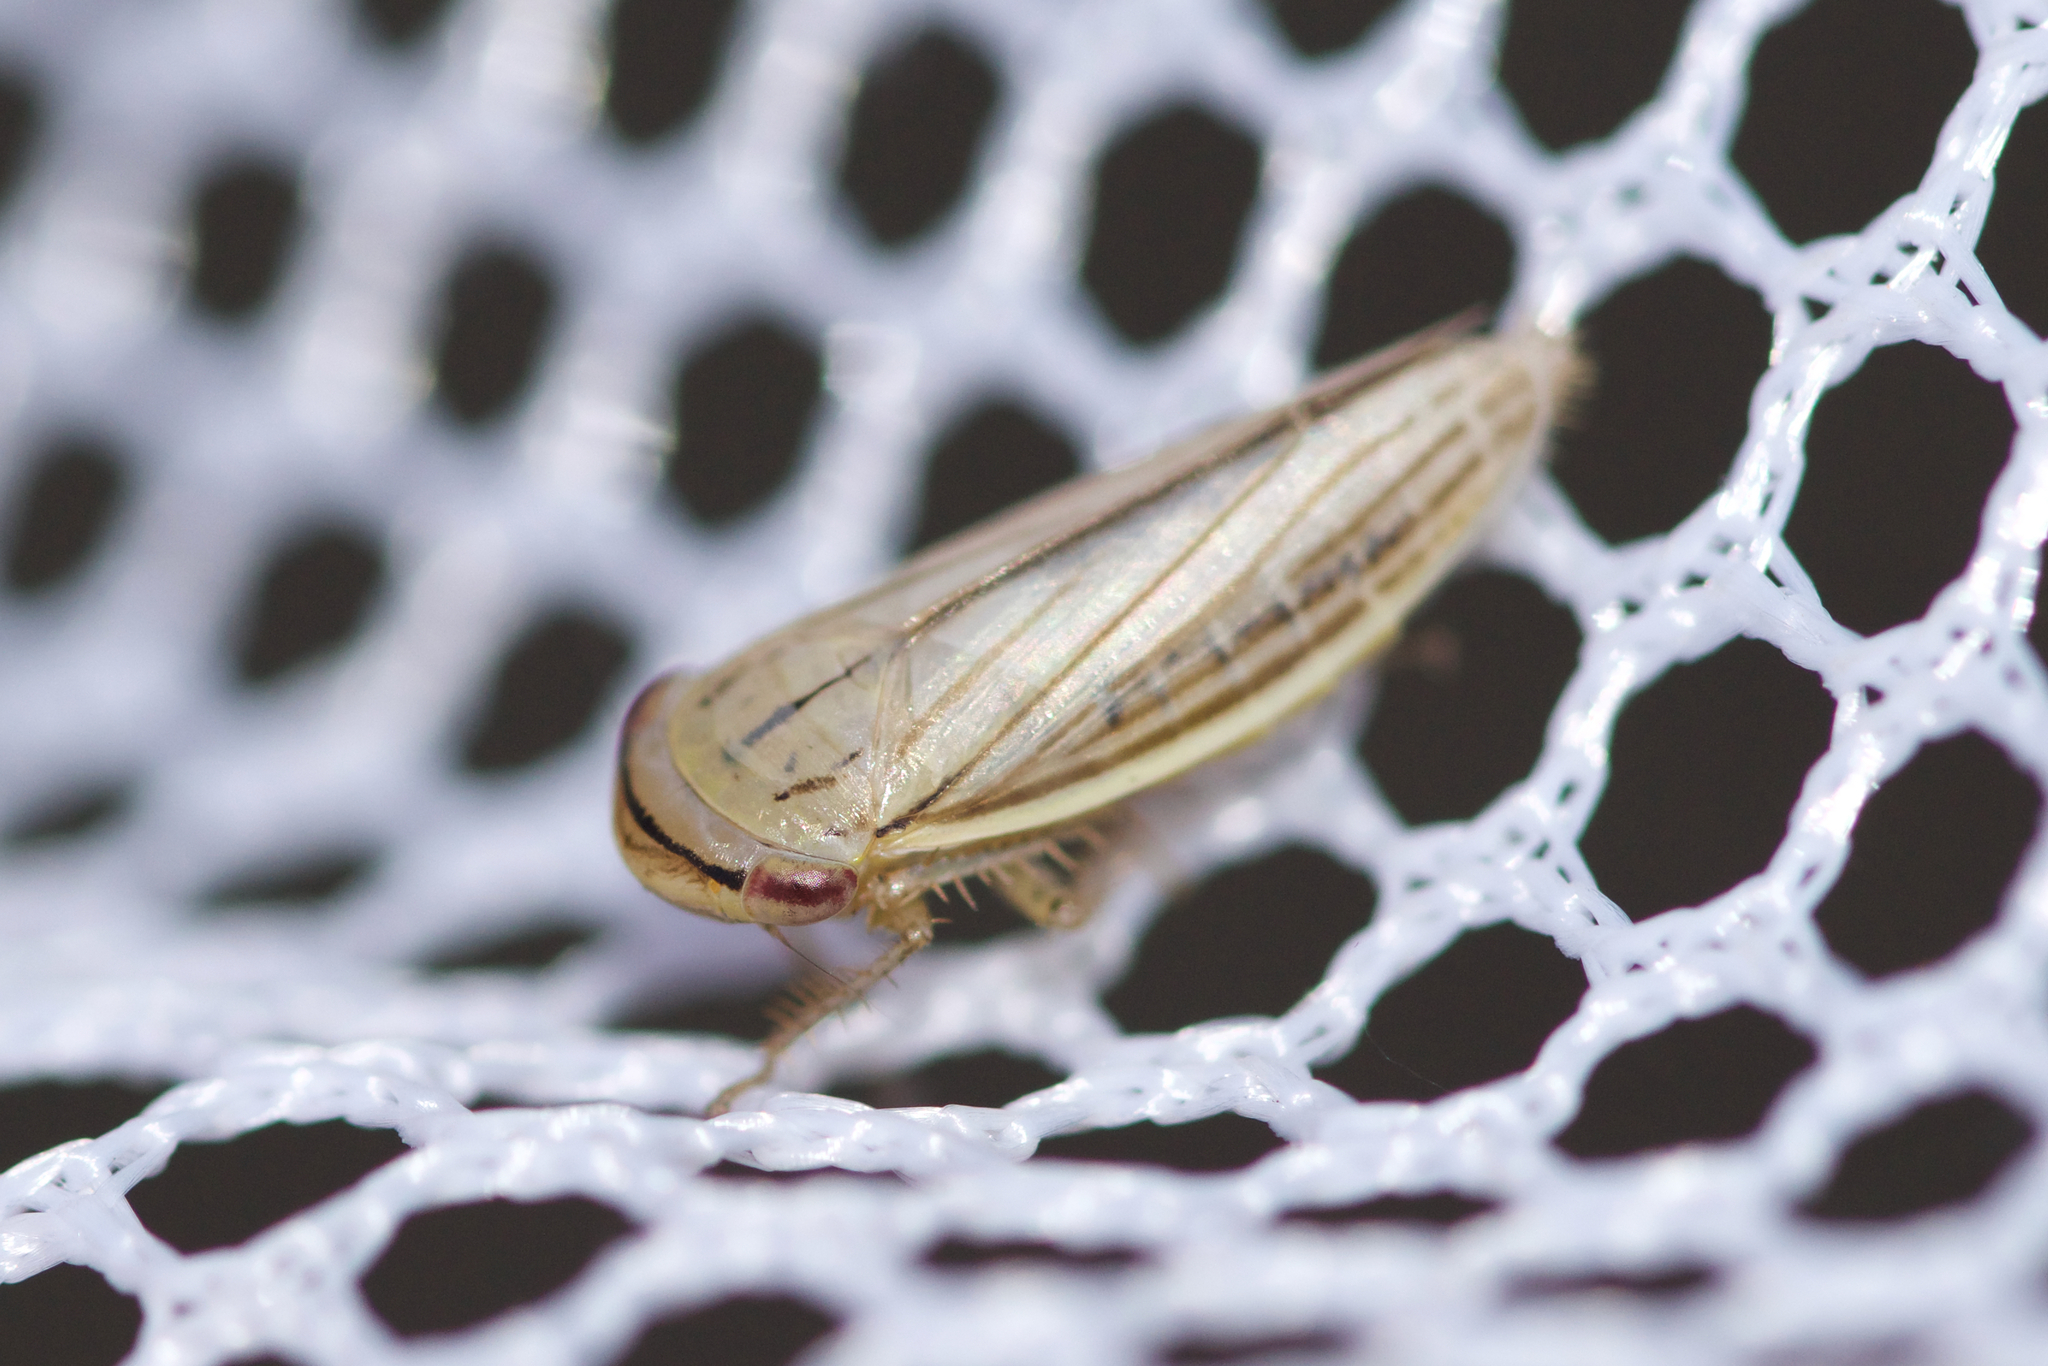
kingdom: Animalia
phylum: Arthropoda
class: Insecta
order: Hemiptera
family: Cicadellidae
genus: Athysanus
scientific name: Athysanus argentarius
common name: Silver leafhopper
